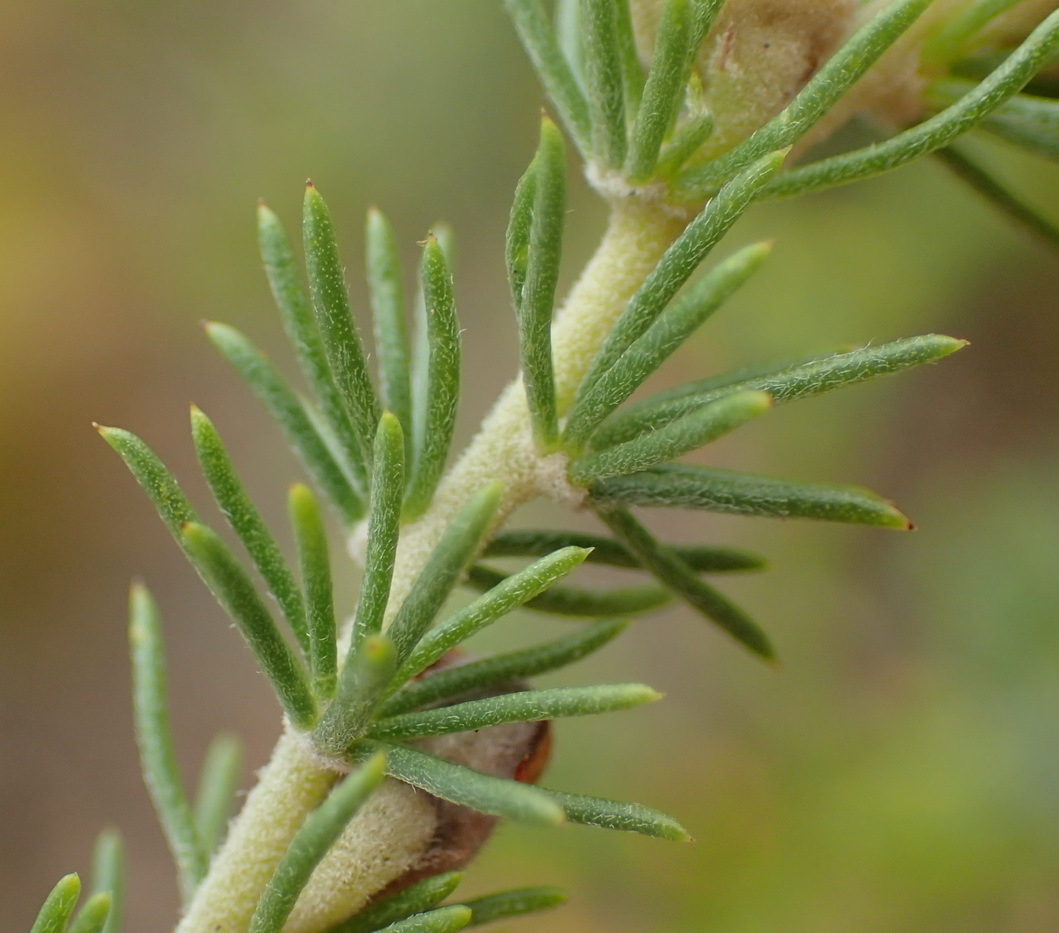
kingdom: Plantae
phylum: Tracheophyta
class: Magnoliopsida
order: Fabales
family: Fabaceae
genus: Aspalathus
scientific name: Aspalathus kougaensis
